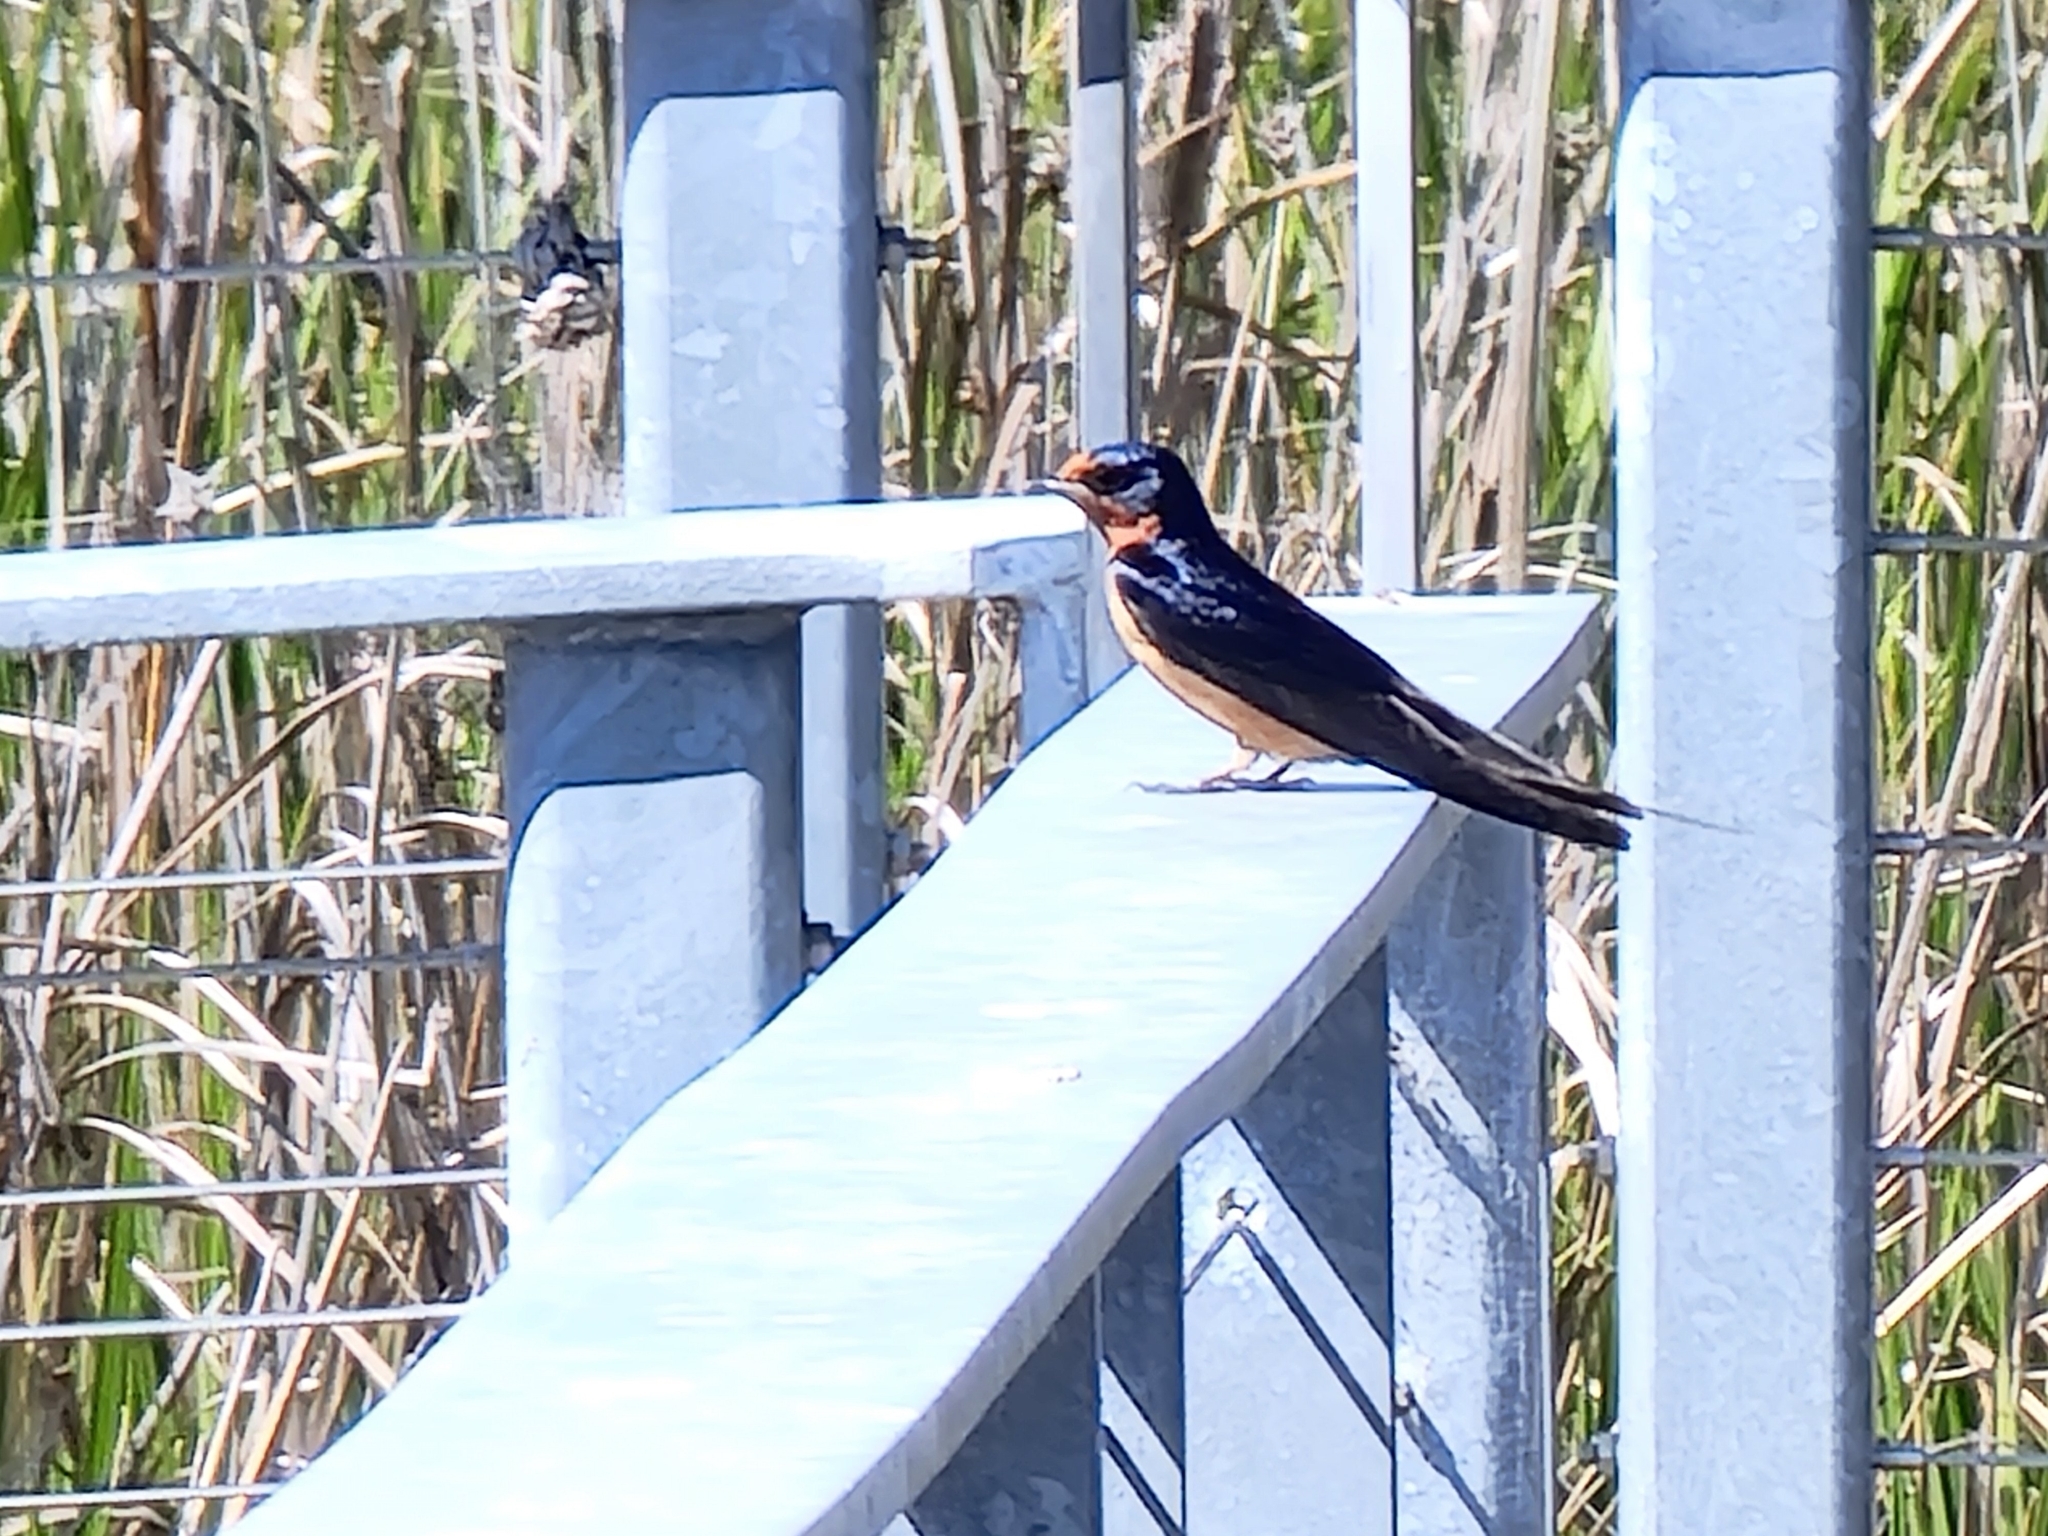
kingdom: Animalia
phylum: Chordata
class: Aves
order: Passeriformes
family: Hirundinidae
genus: Hirundo
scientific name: Hirundo rustica
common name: Barn swallow
